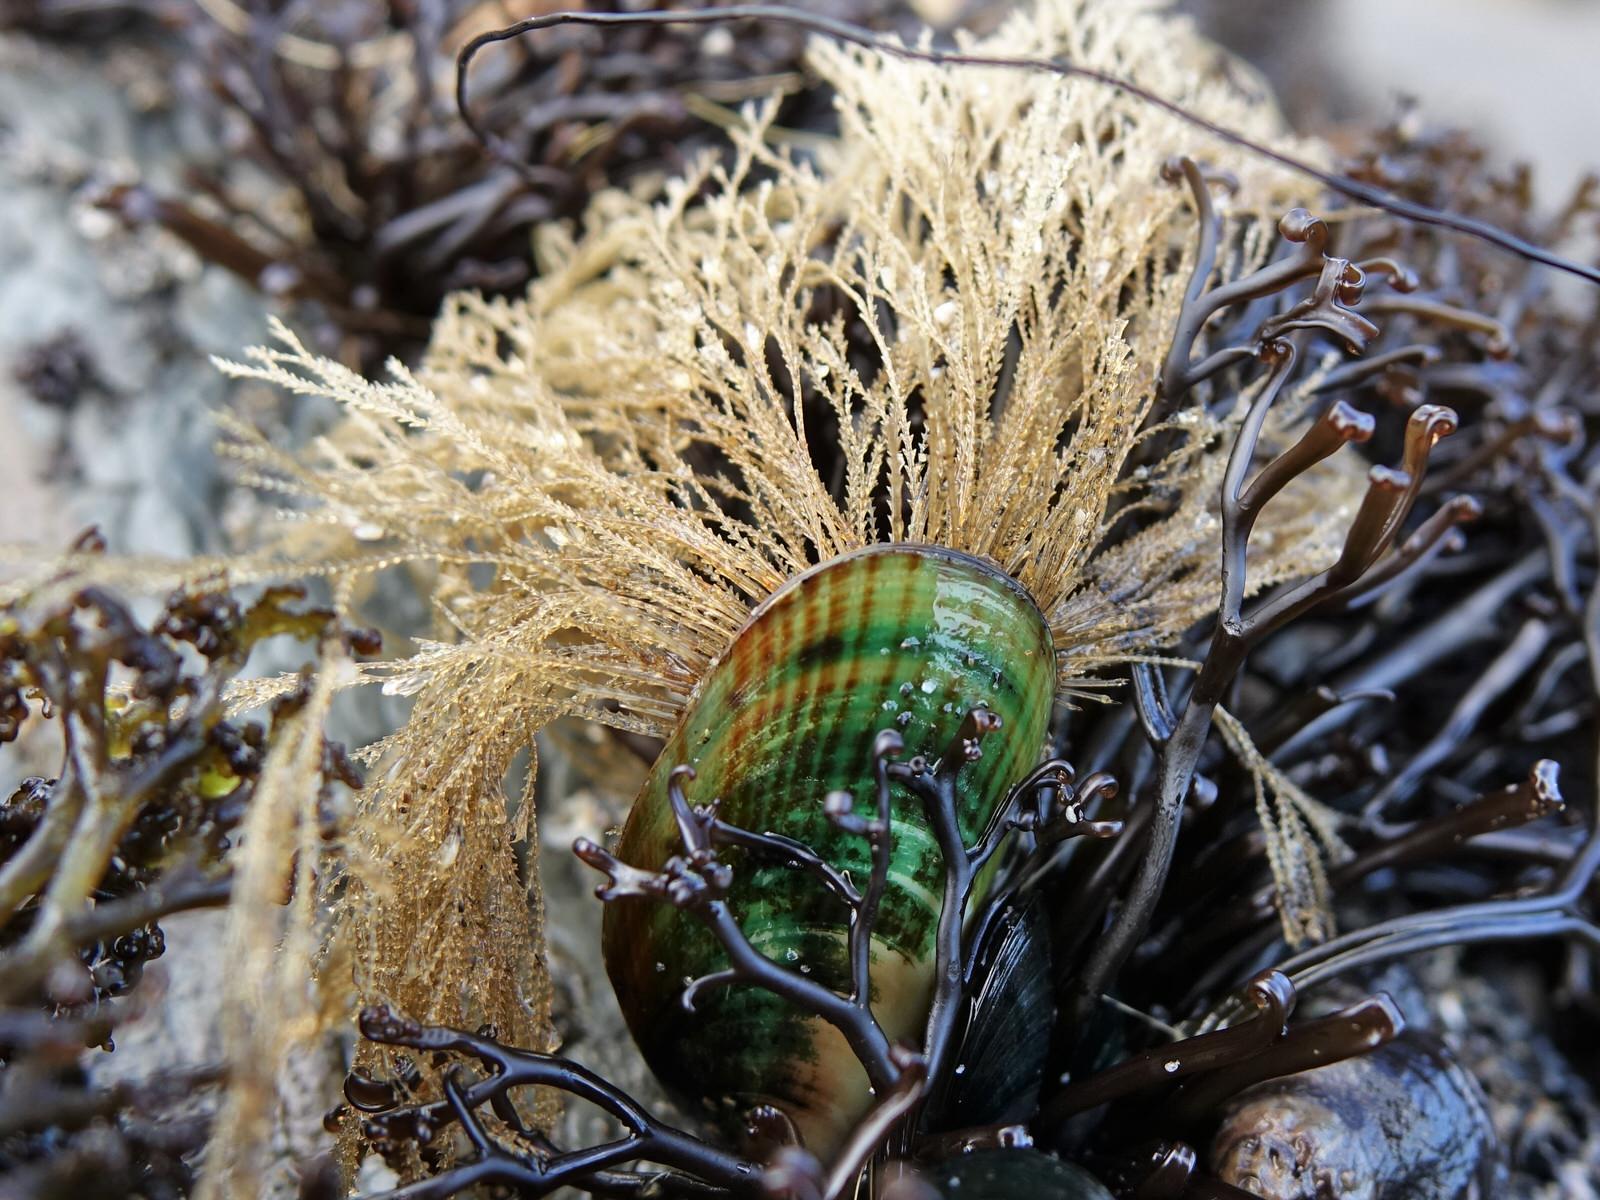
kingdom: Animalia
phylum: Mollusca
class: Bivalvia
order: Mytilida
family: Mytilidae
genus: Perna
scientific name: Perna canaliculus
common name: New zealand greenshelltm
